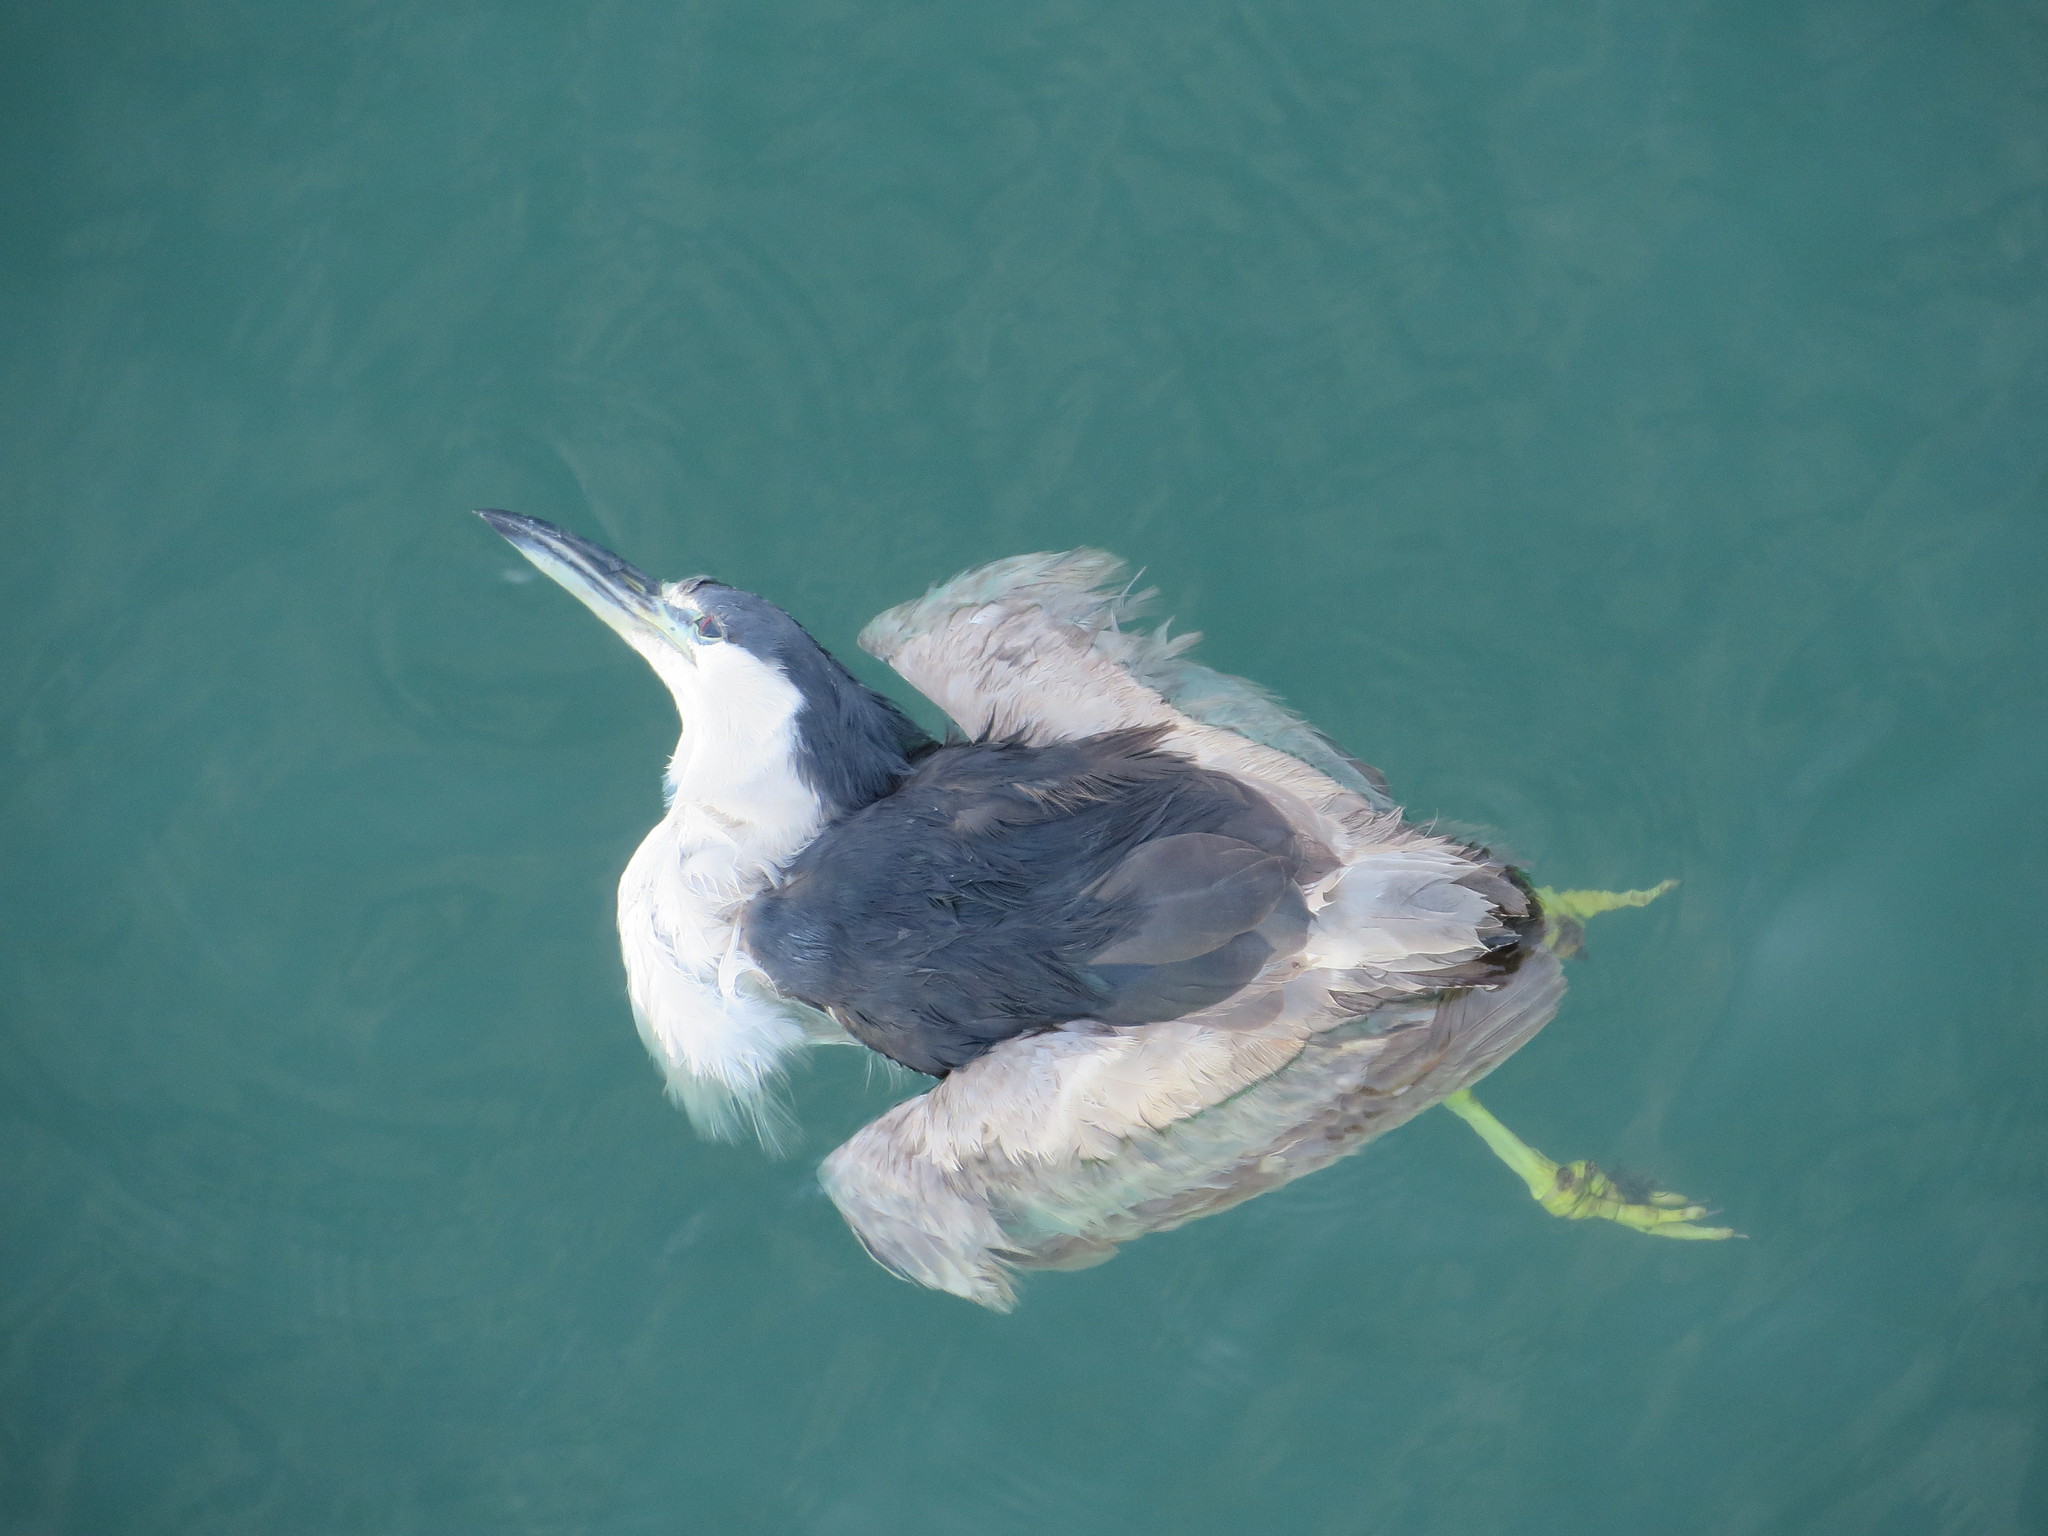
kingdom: Animalia
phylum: Chordata
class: Aves
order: Pelecaniformes
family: Ardeidae
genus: Nycticorax
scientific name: Nycticorax nycticorax
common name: Black-crowned night heron
